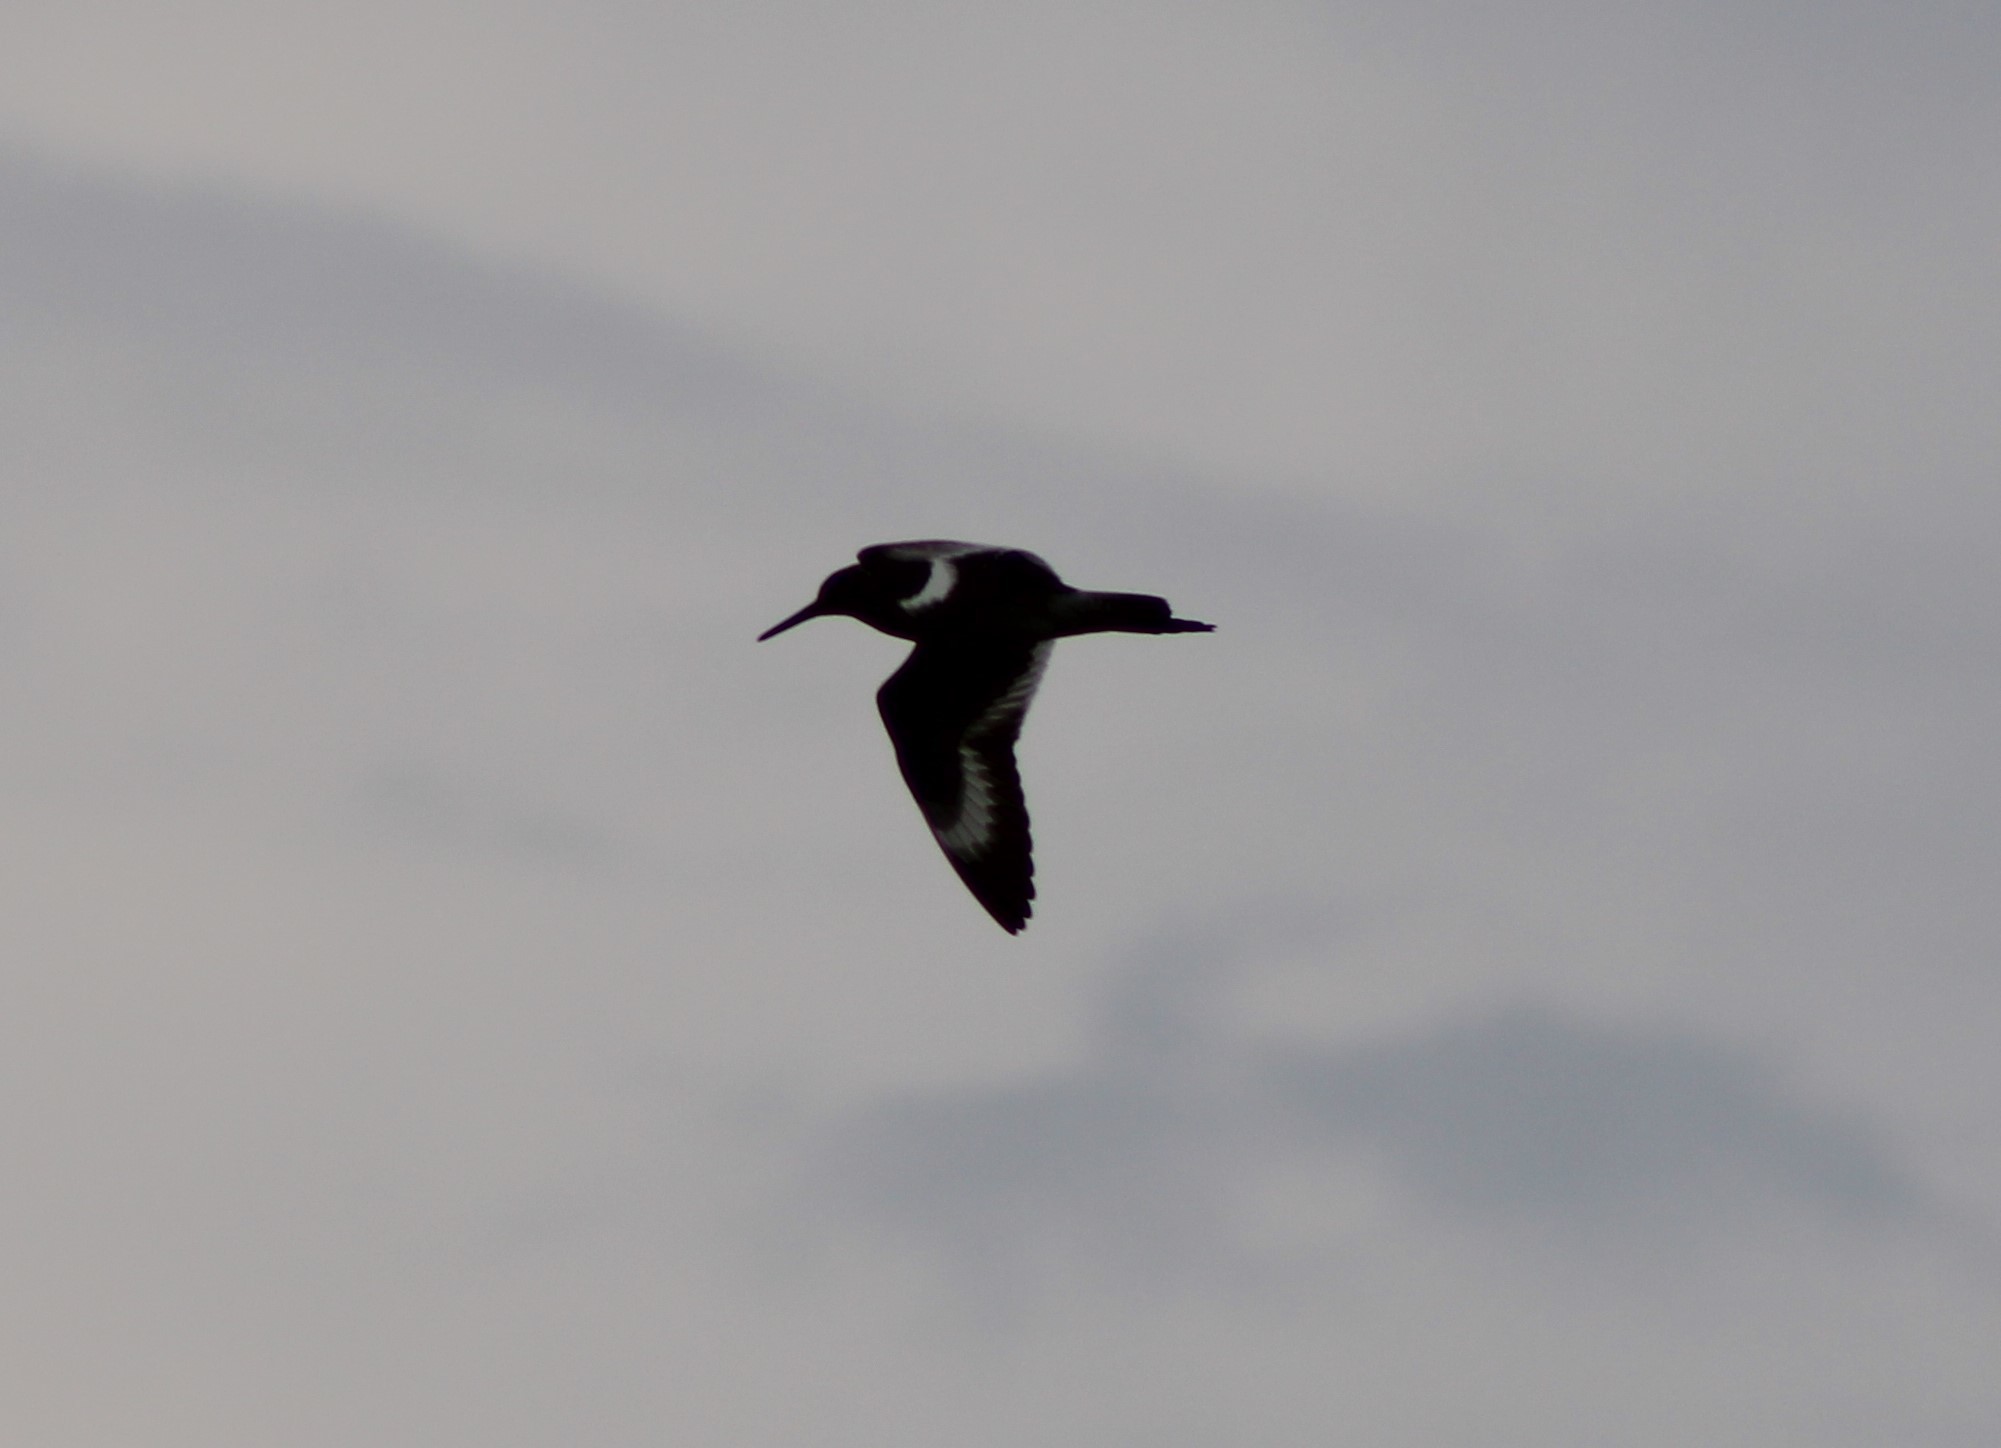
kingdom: Animalia
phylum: Chordata
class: Aves
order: Charadriiformes
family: Scolopacidae
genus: Tringa
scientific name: Tringa semipalmata
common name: Willet
